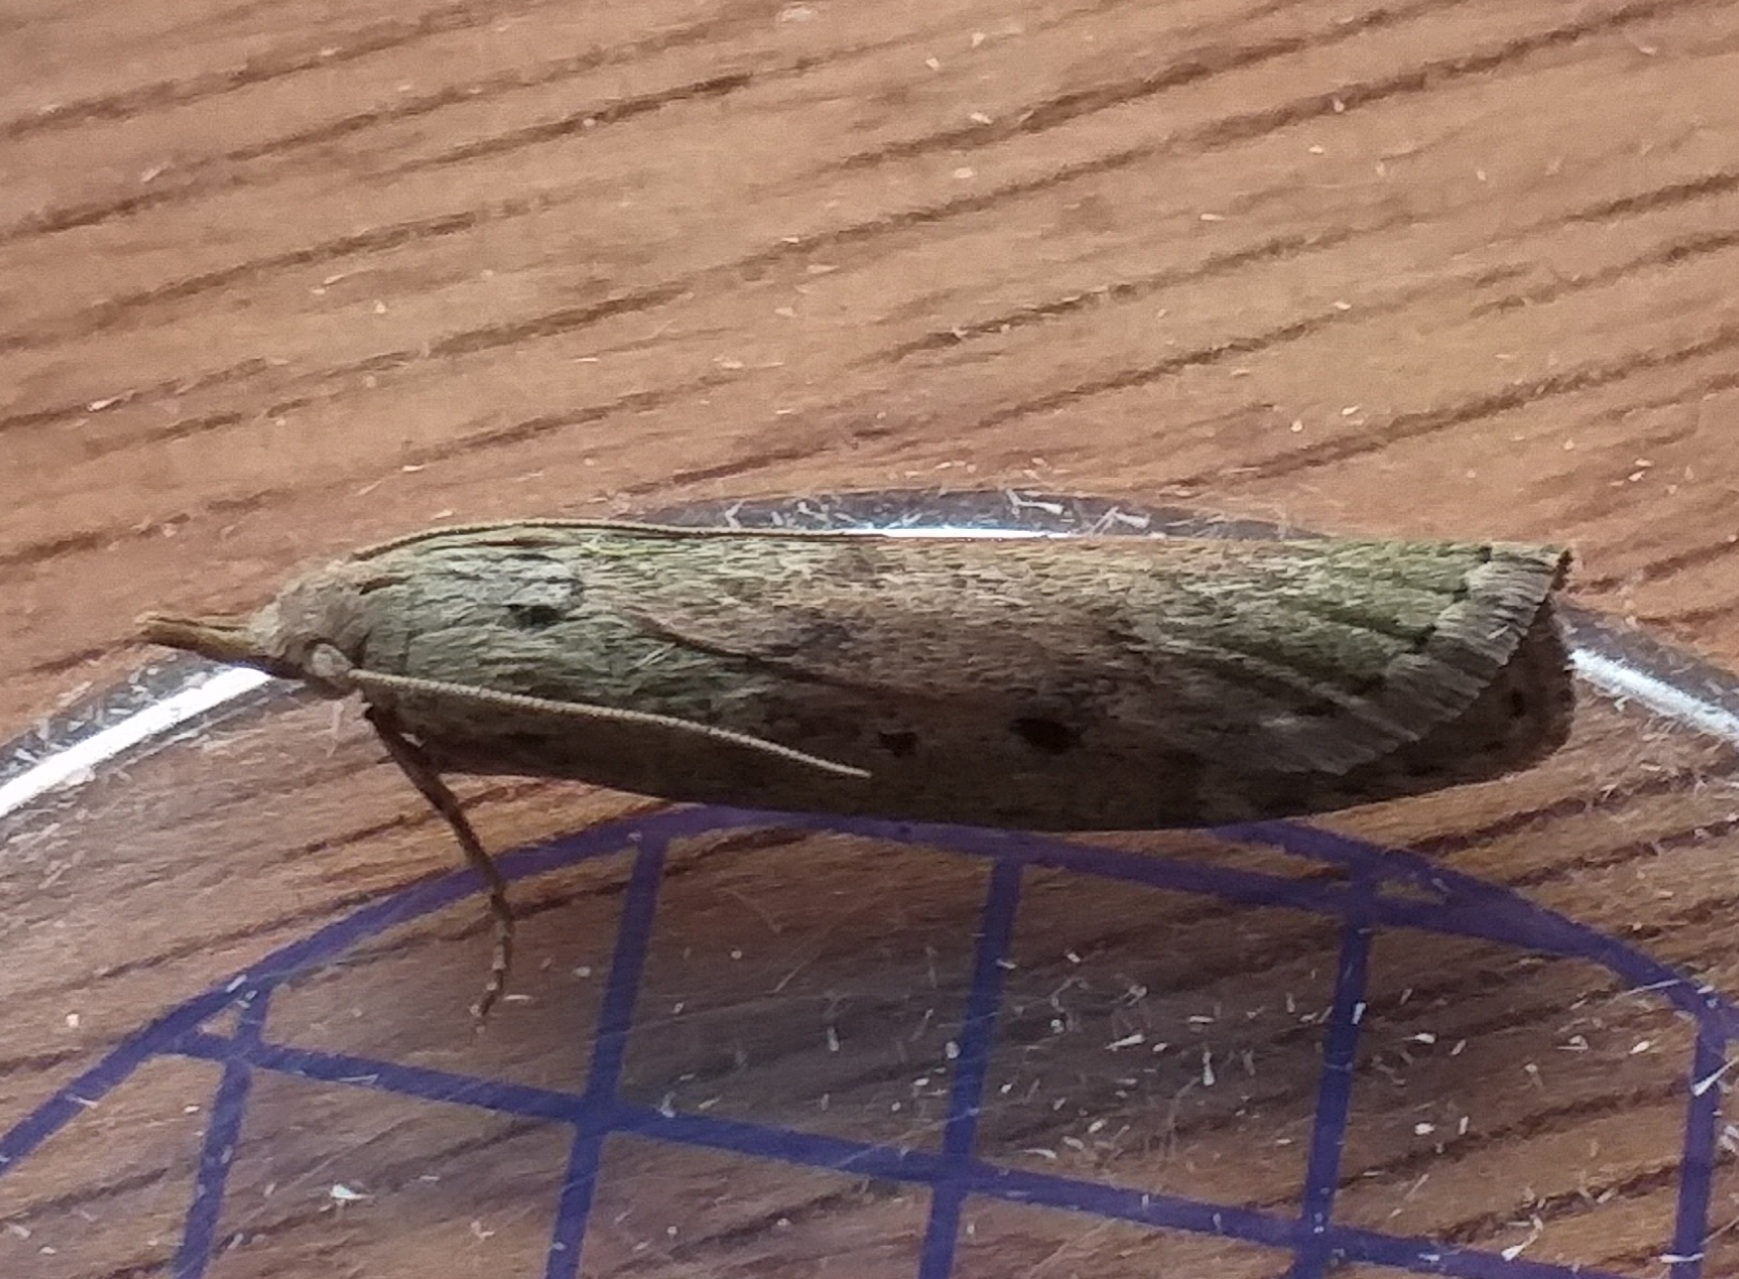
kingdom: Animalia
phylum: Arthropoda
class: Insecta
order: Lepidoptera
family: Pyralidae
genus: Aphomia
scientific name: Aphomia sociella
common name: Bee moth
